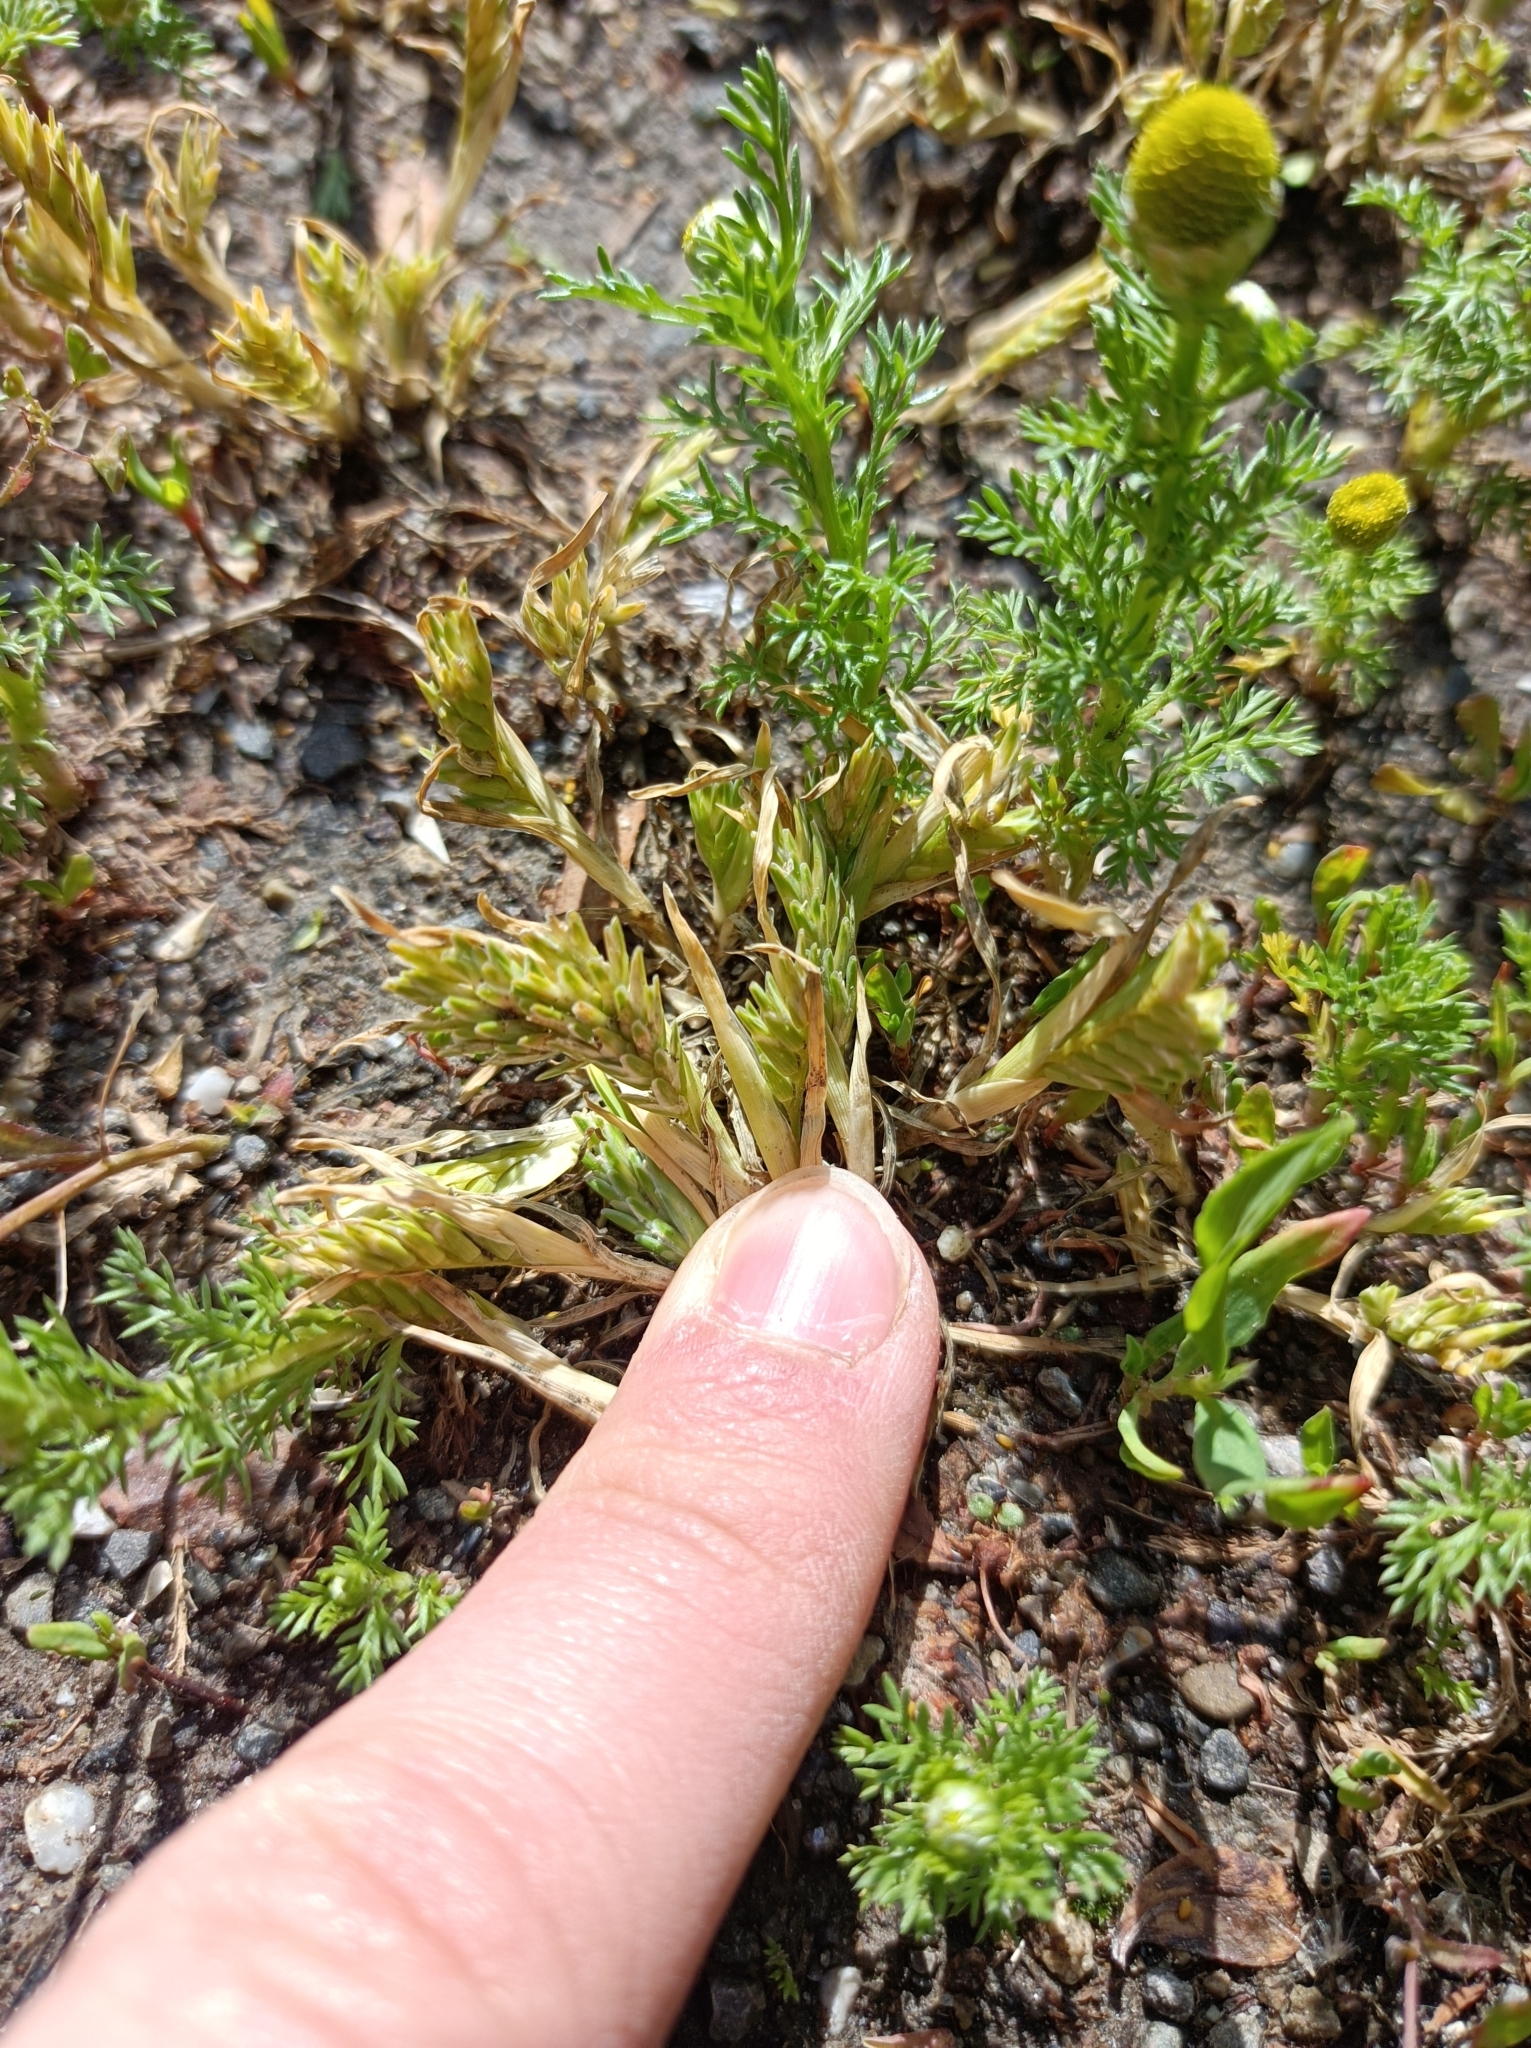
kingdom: Plantae
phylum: Tracheophyta
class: Liliopsida
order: Poales
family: Poaceae
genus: Sclerochloa
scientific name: Sclerochloa dura
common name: Common hardgrass
